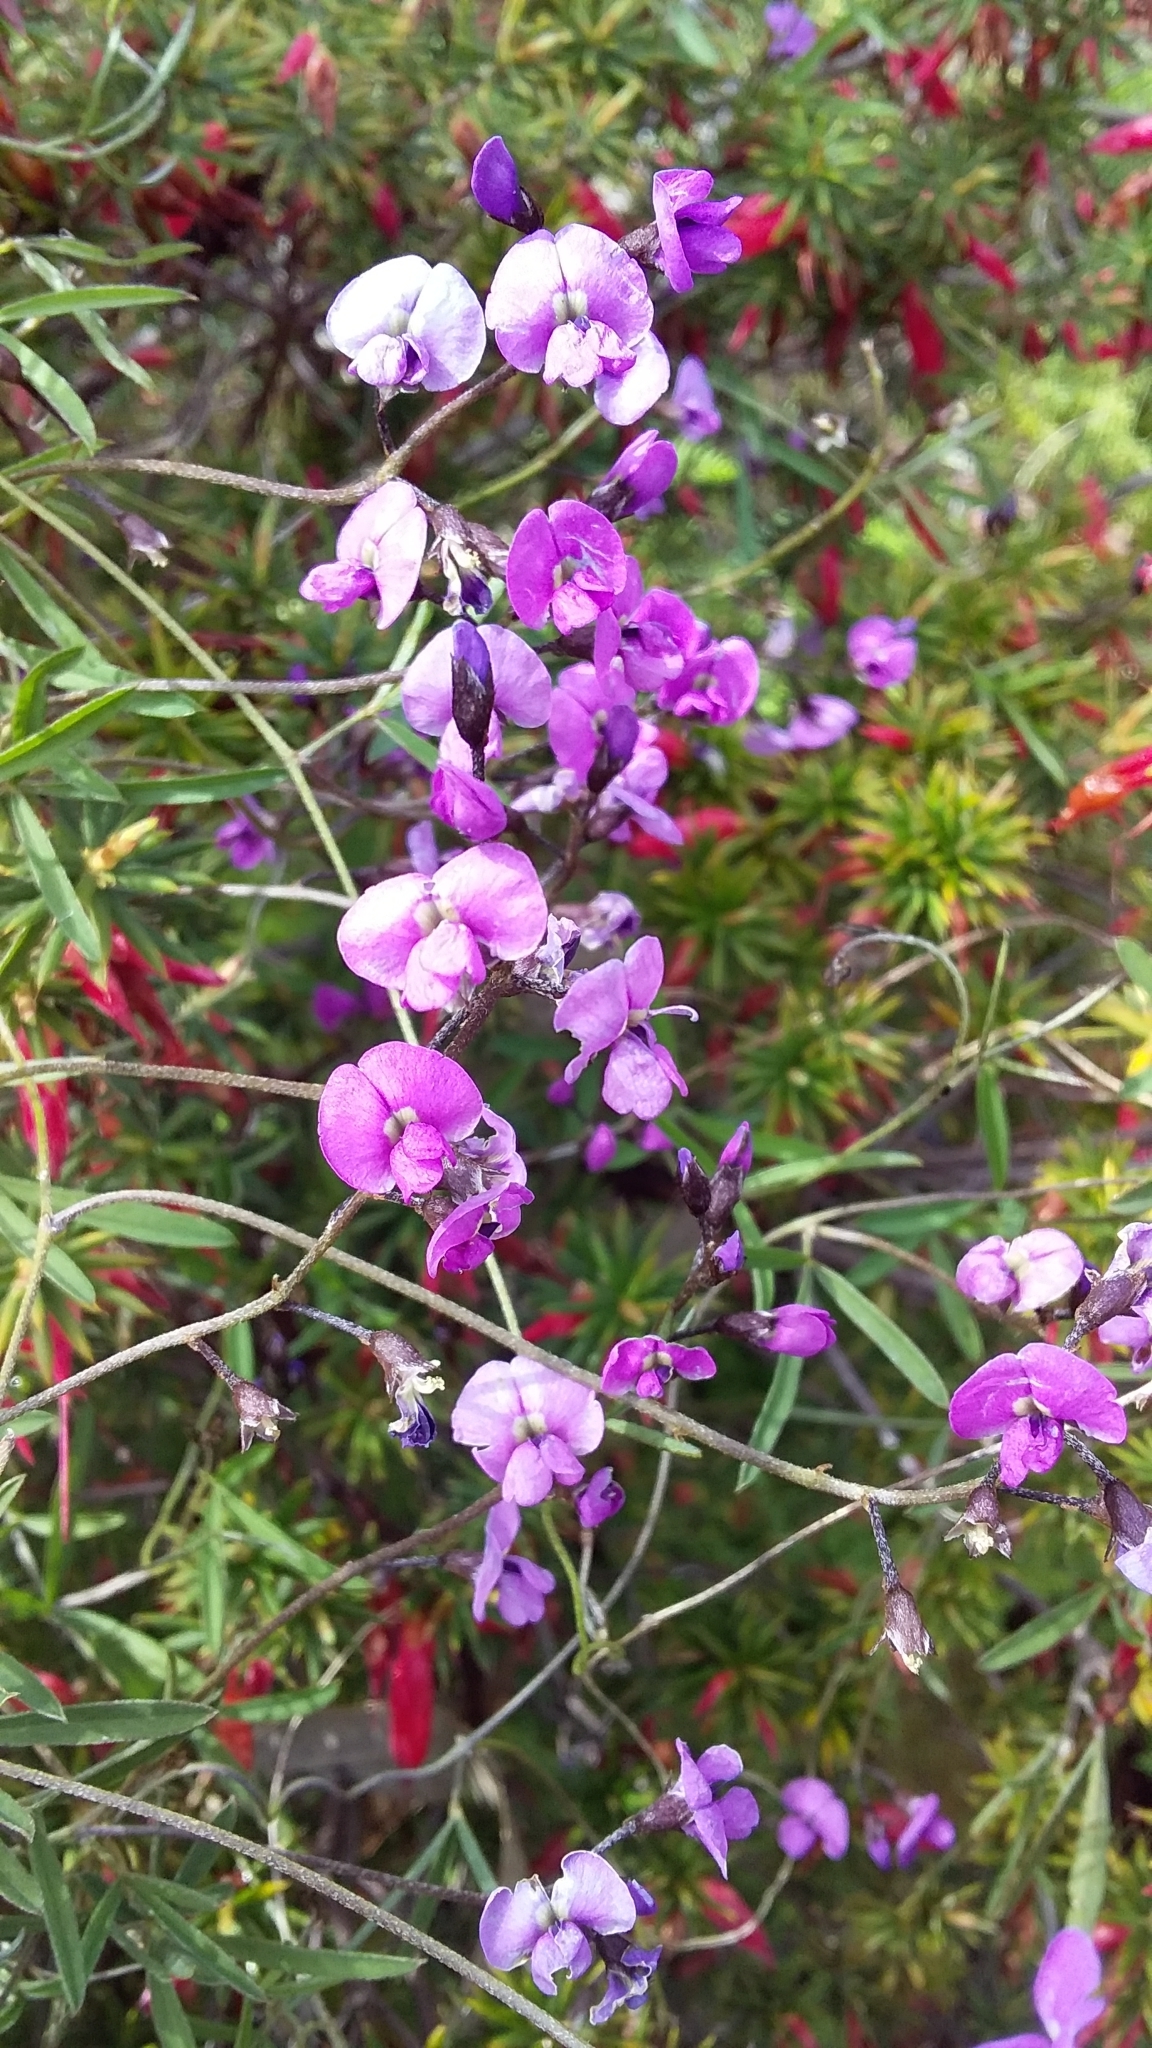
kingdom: Plantae
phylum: Tracheophyta
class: Magnoliopsida
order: Fabales
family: Fabaceae
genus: Glycine
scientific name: Glycine rubiginosa
